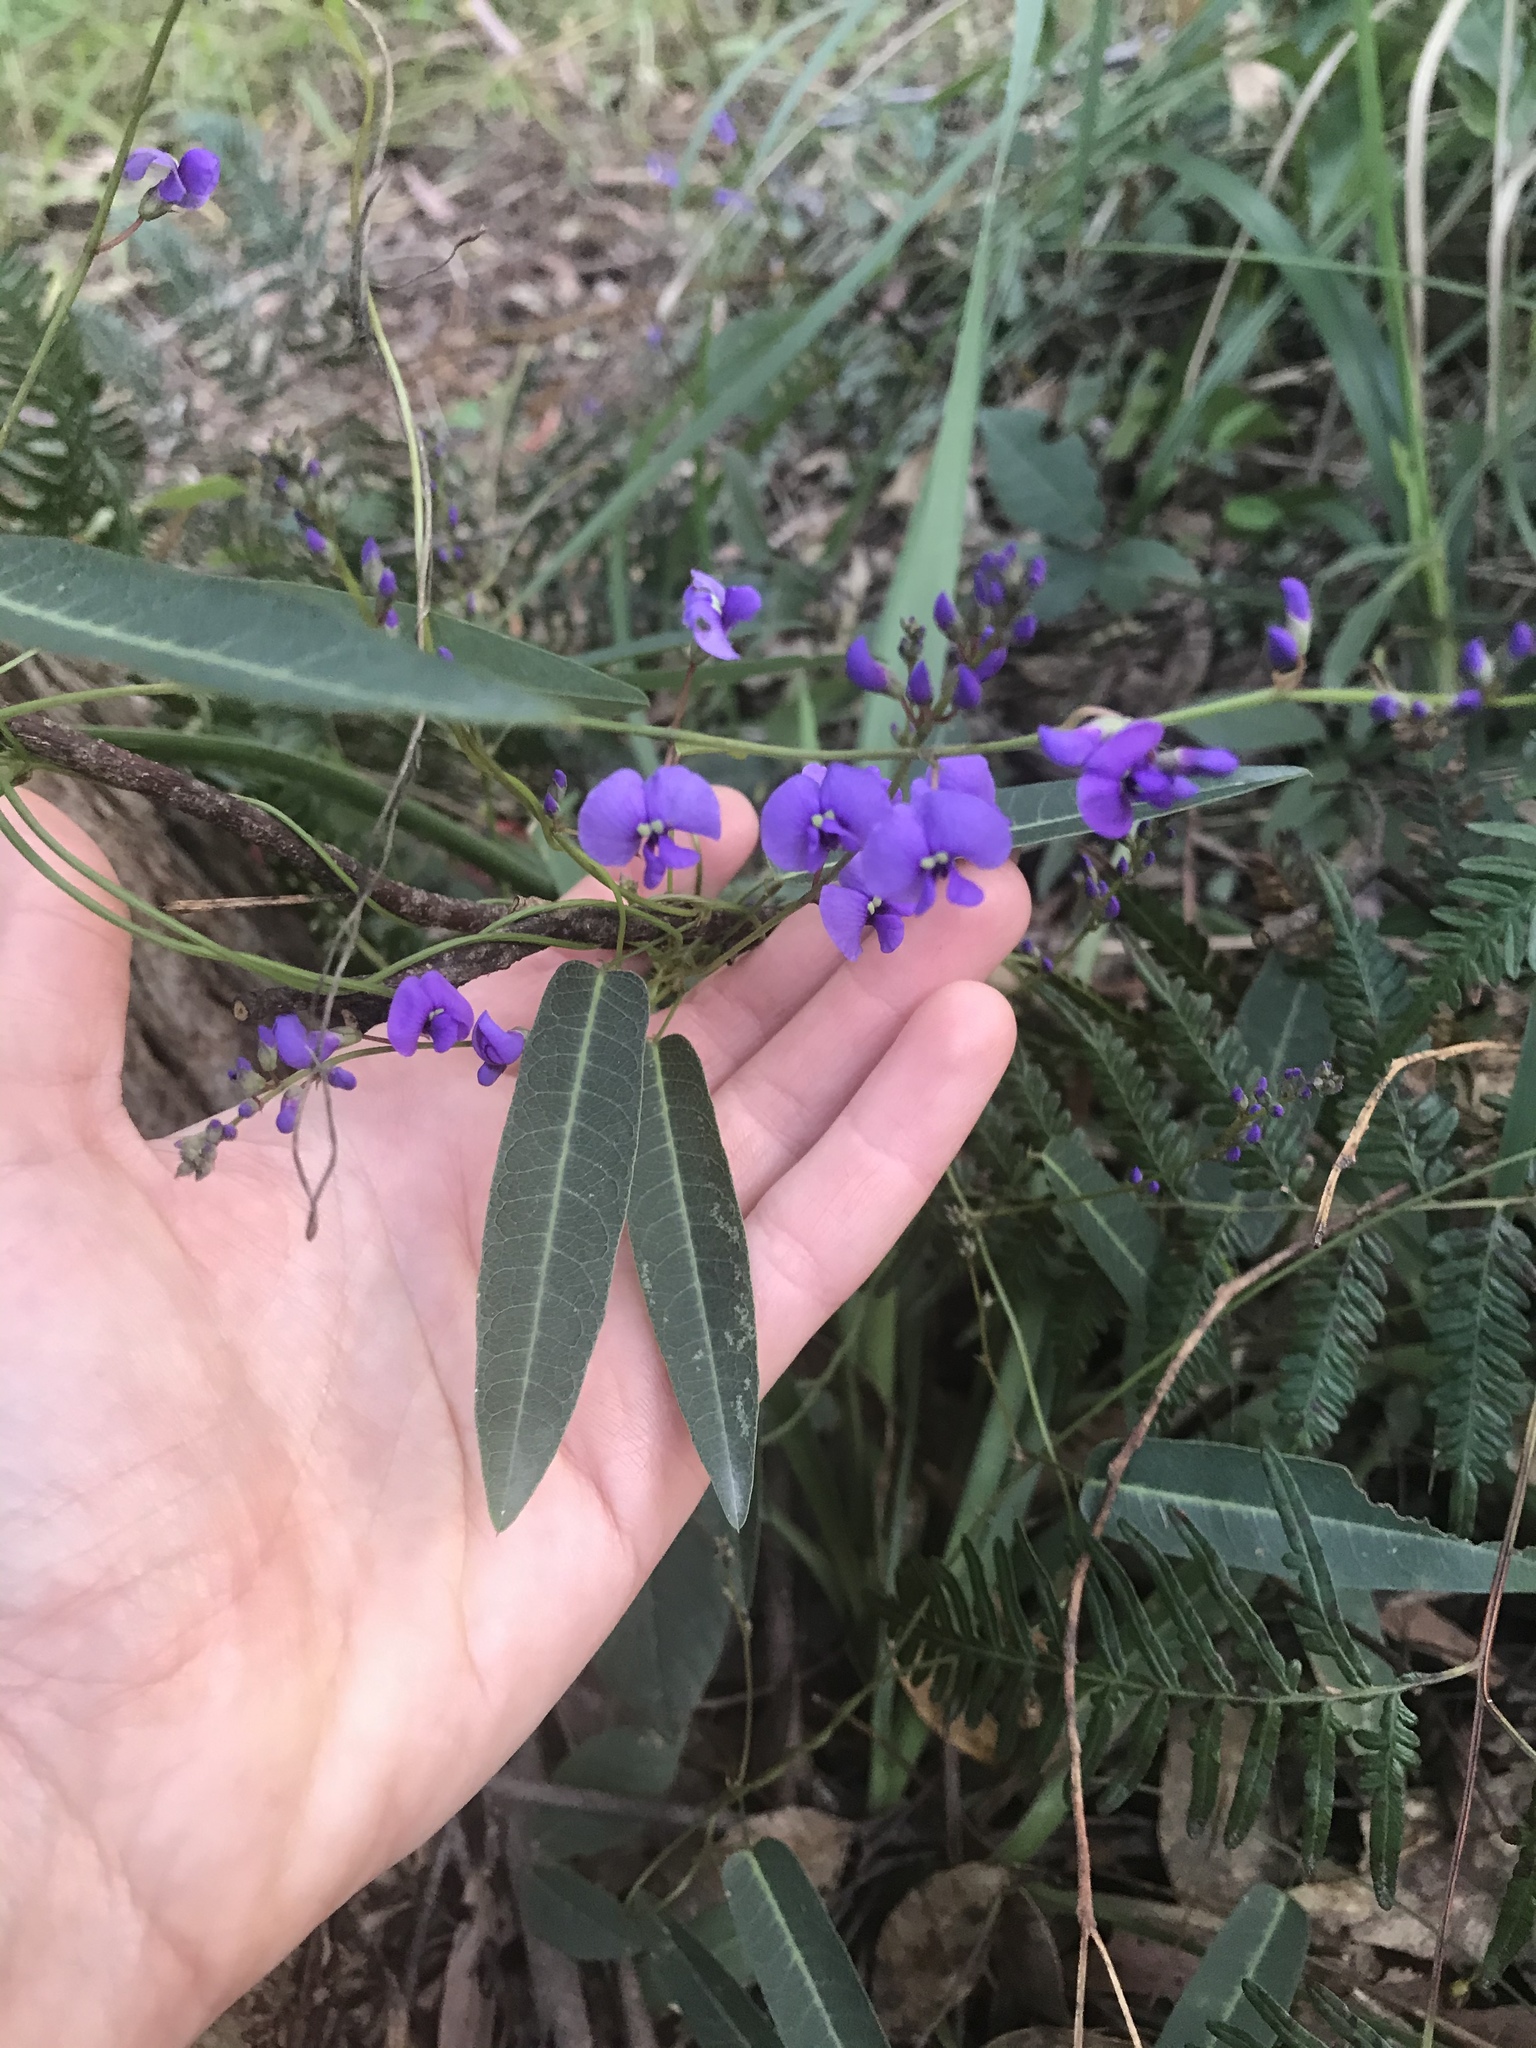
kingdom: Plantae
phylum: Tracheophyta
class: Magnoliopsida
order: Fabales
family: Fabaceae
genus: Hardenbergia
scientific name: Hardenbergia violacea
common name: Coral-pea
